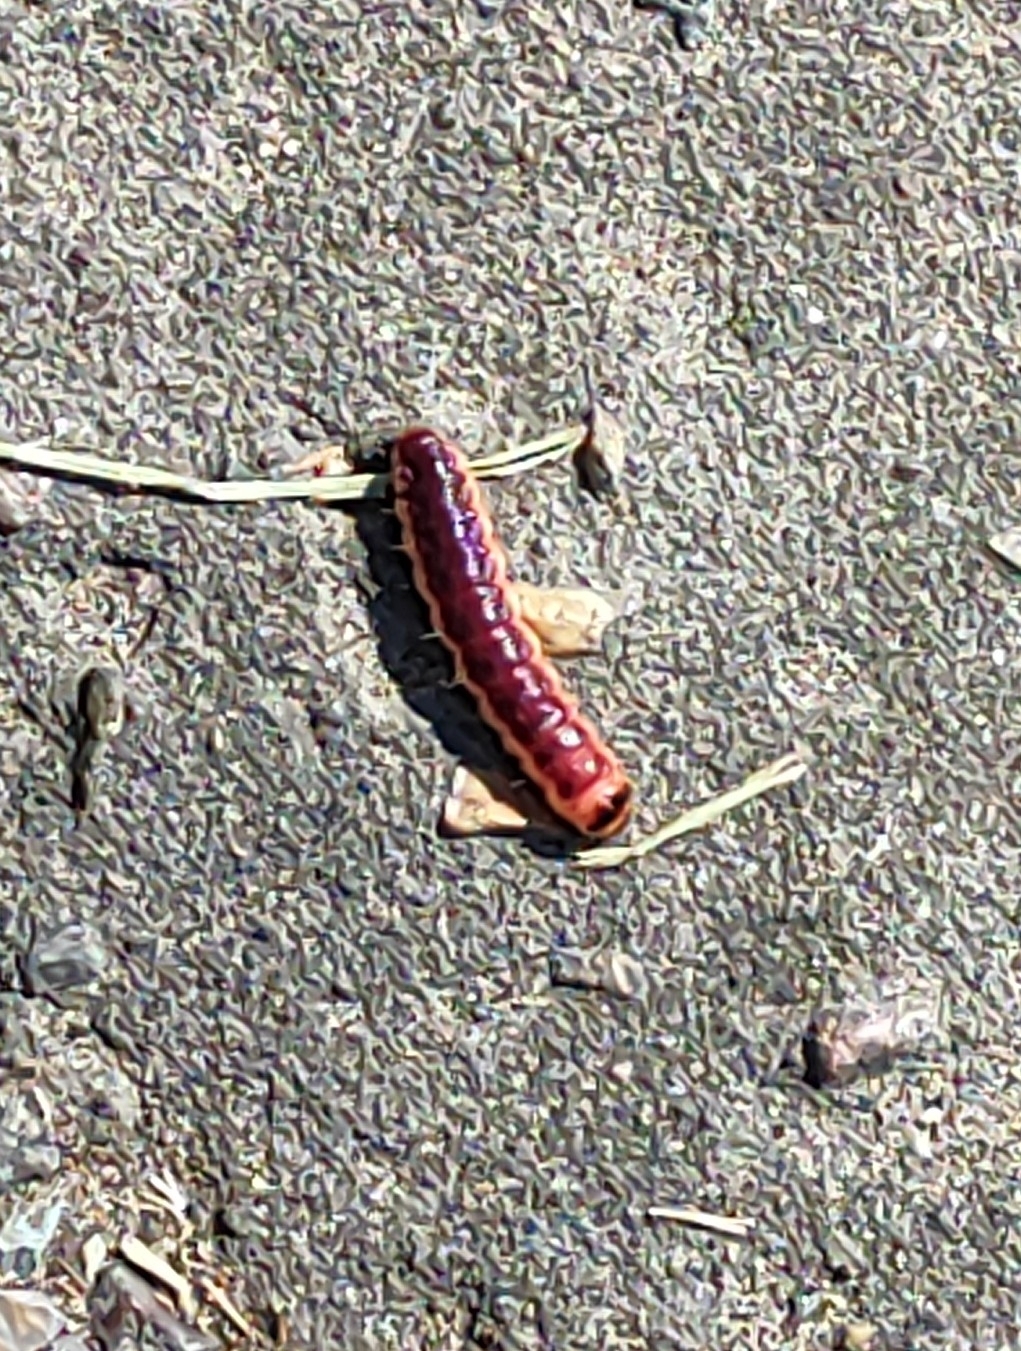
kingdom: Animalia
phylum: Arthropoda
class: Insecta
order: Lepidoptera
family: Cossidae
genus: Cossus
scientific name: Cossus cossus
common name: Goat moth
